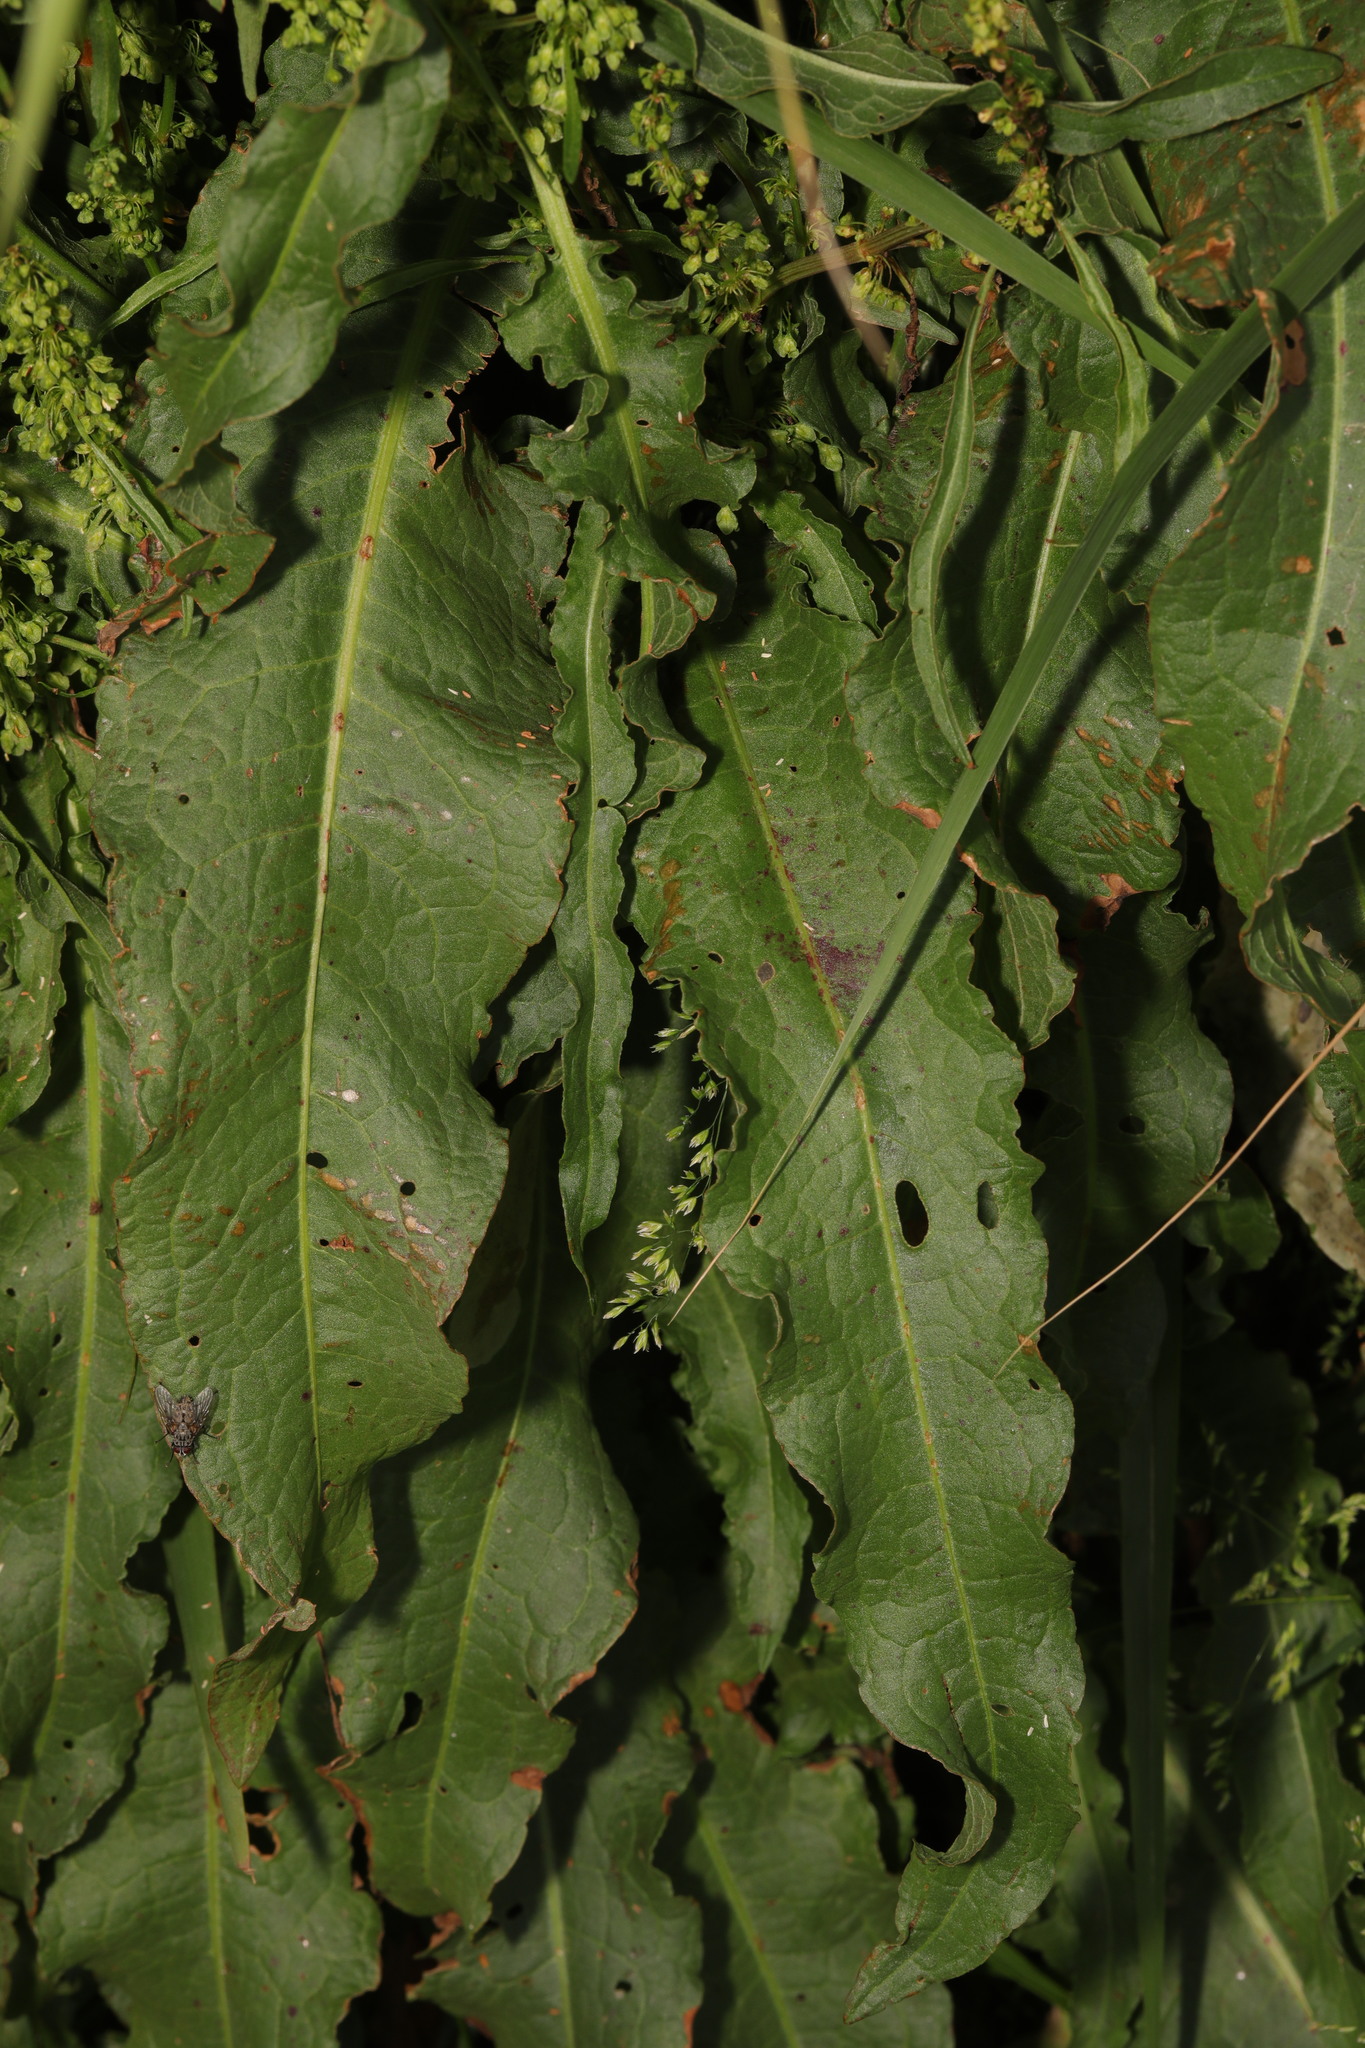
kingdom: Plantae
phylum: Tracheophyta
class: Magnoliopsida
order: Caryophyllales
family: Polygonaceae
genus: Rumex
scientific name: Rumex crispus
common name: Curled dock
